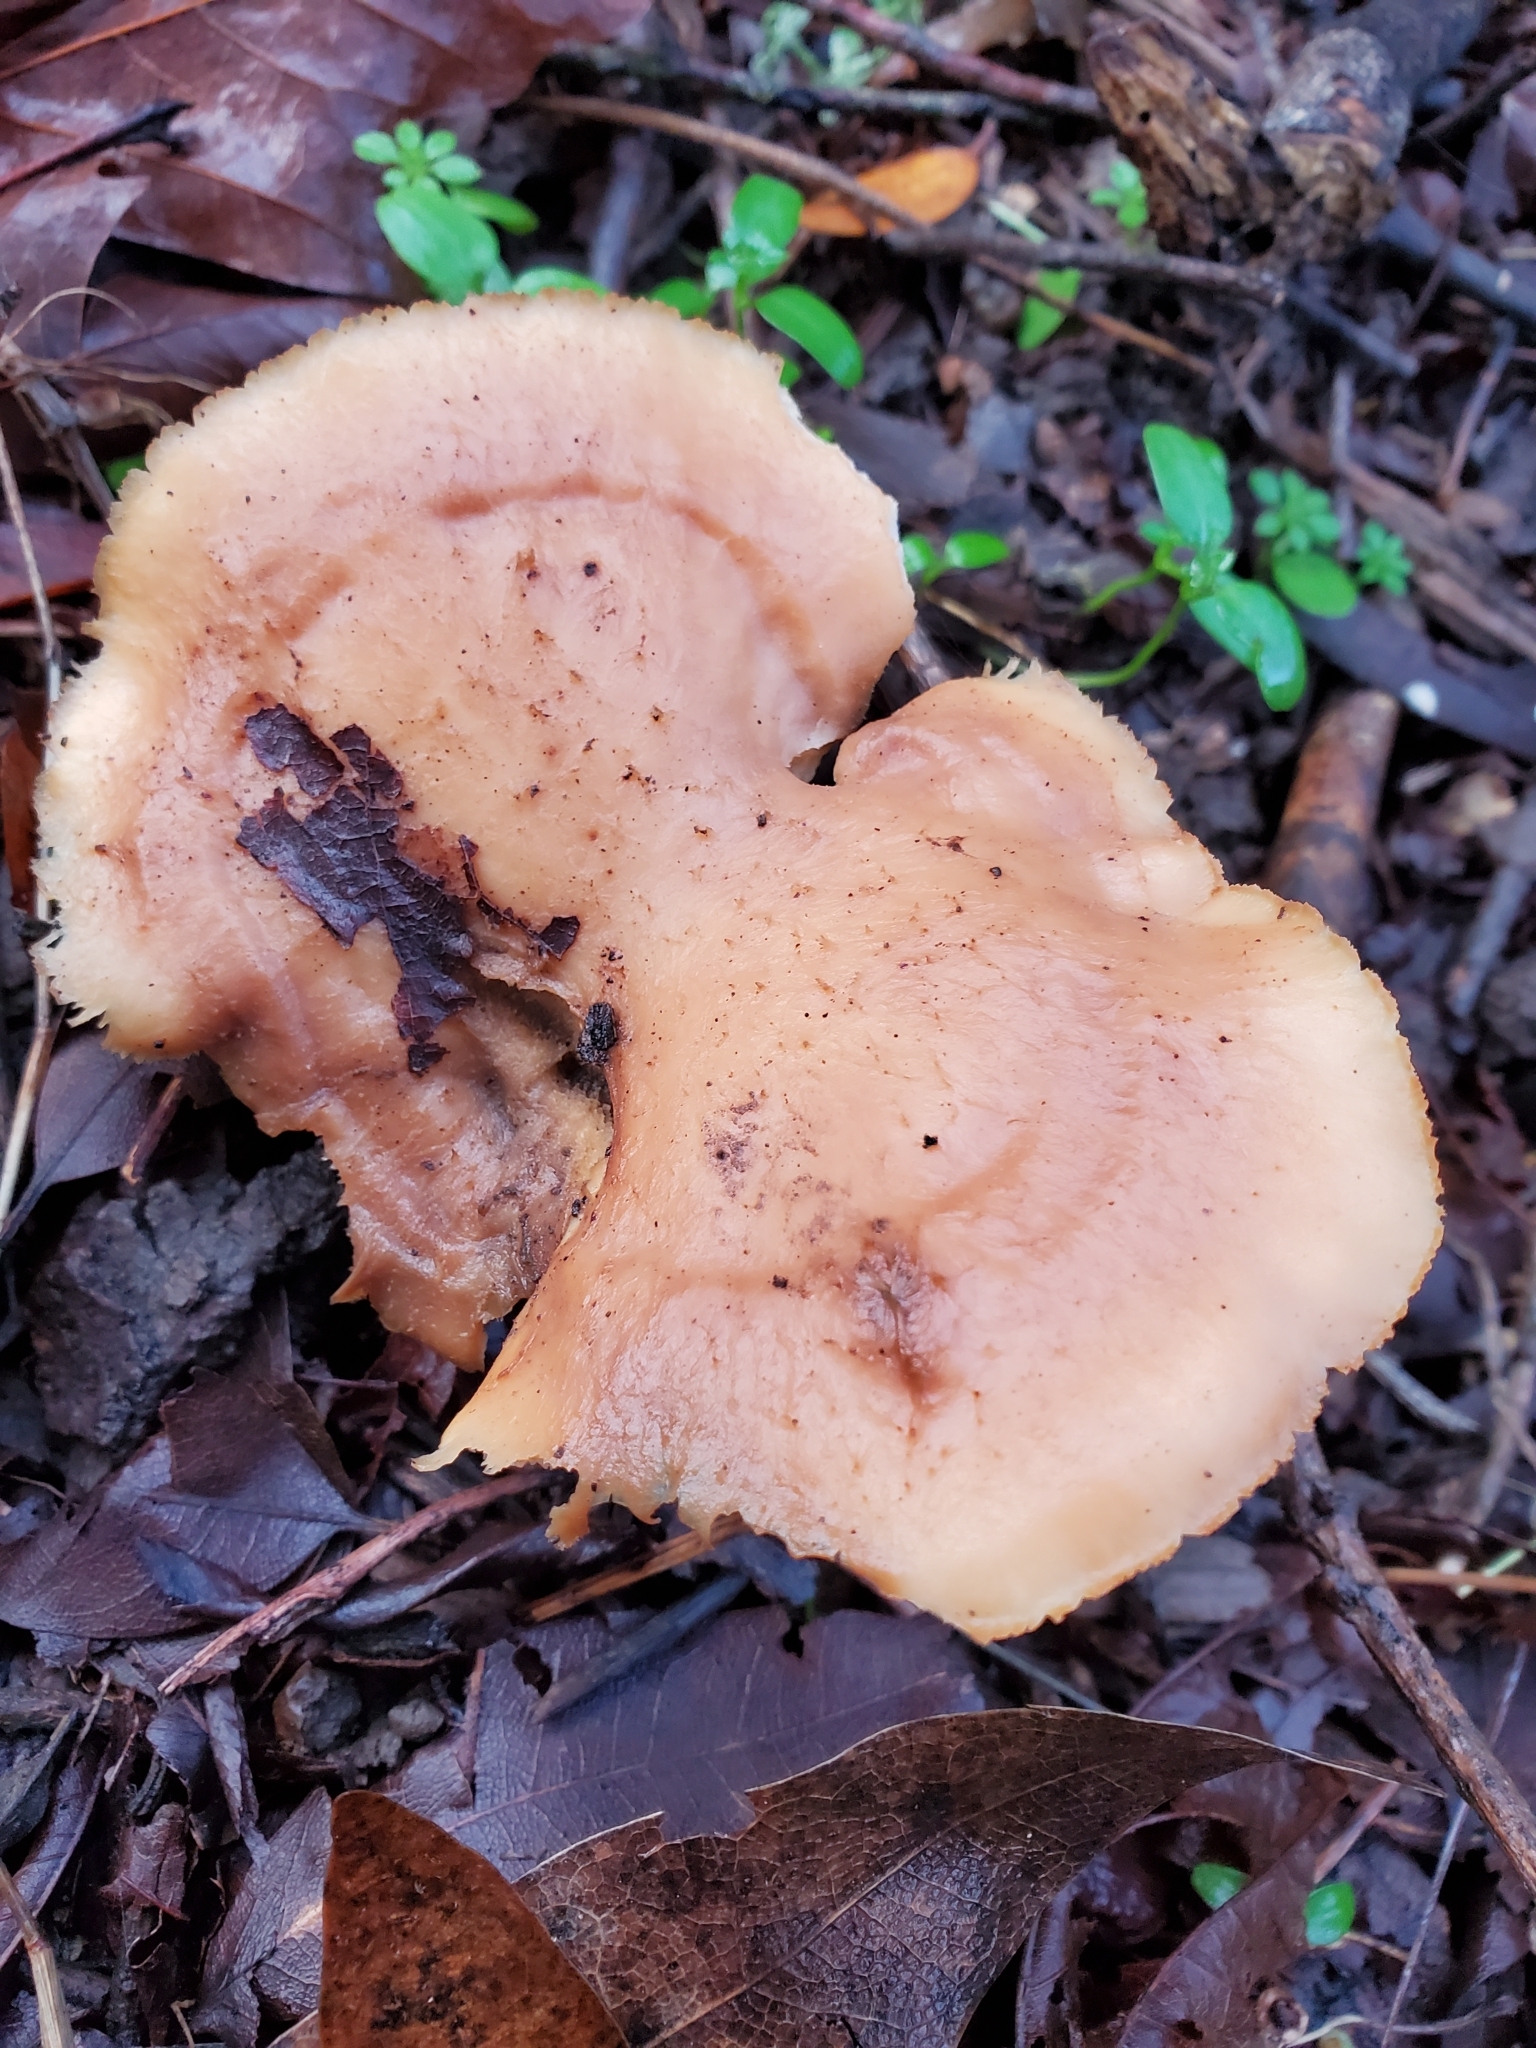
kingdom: Fungi
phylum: Basidiomycota
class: Agaricomycetes
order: Polyporales
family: Phanerochaetaceae
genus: Bjerkandera
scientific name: Bjerkandera fumosa
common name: Big smoky bracket
